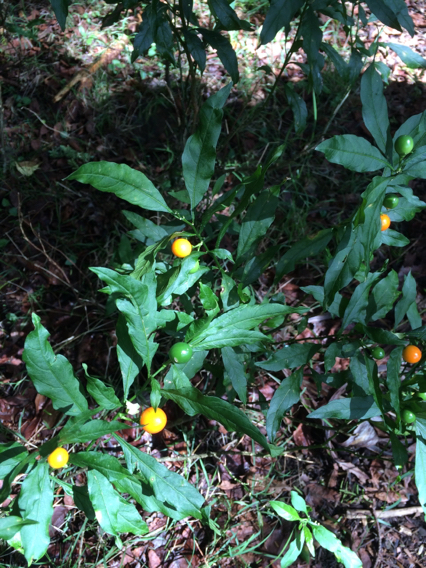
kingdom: Plantae
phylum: Tracheophyta
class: Magnoliopsida
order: Solanales
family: Solanaceae
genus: Solanum
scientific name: Solanum pseudocapsicum
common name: Jerusalem cherry
